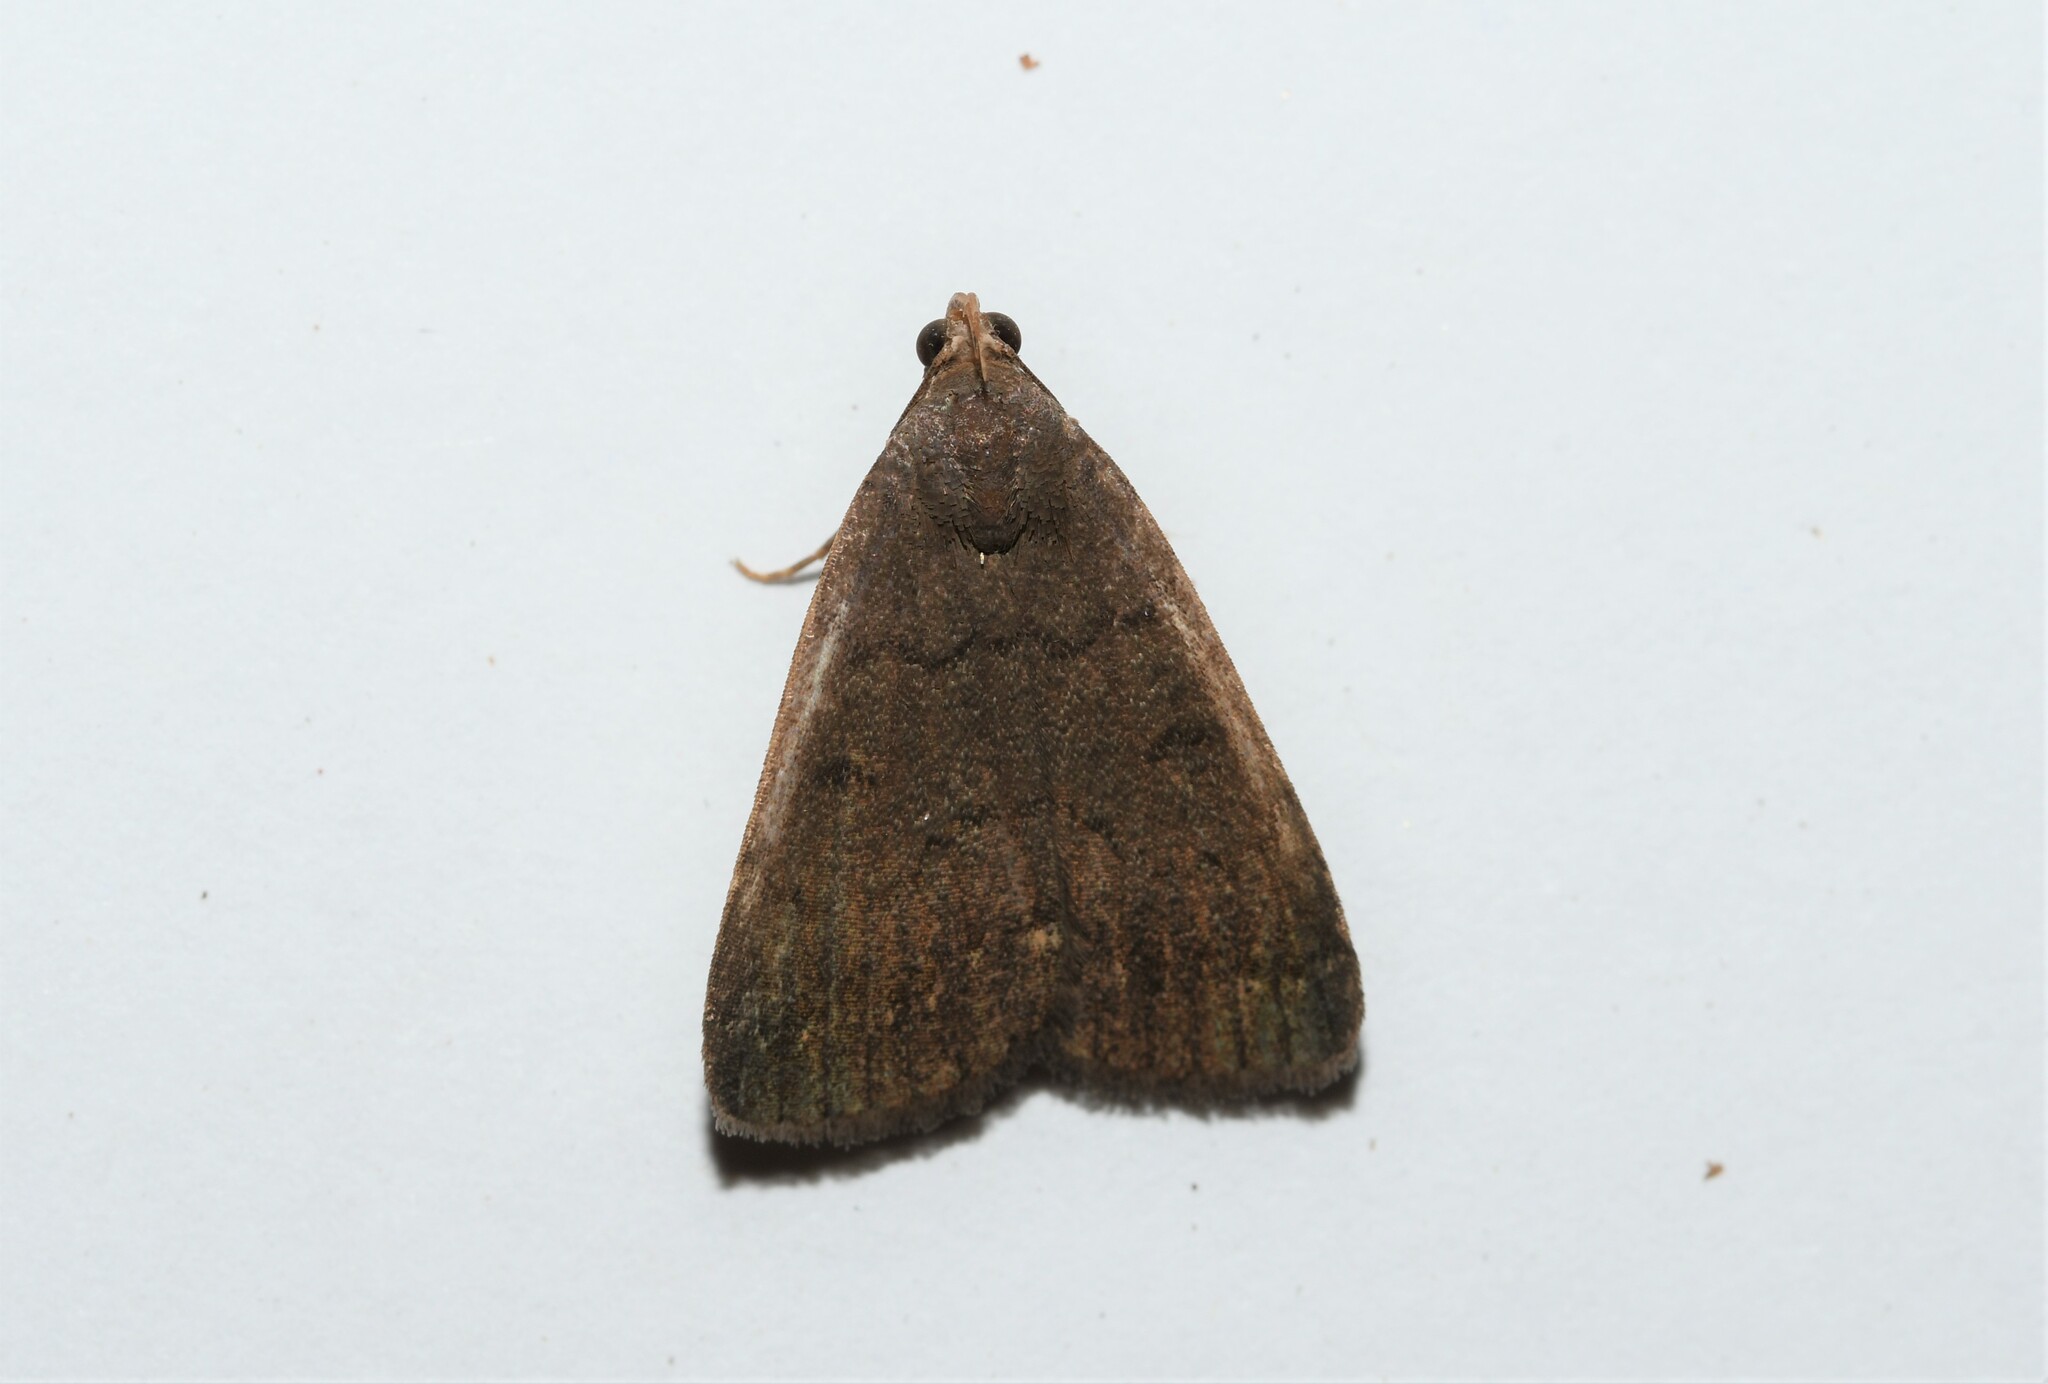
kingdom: Animalia
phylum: Arthropoda
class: Insecta
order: Lepidoptera
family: Erebidae
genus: Nodaria
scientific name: Nodaria nodosalis
